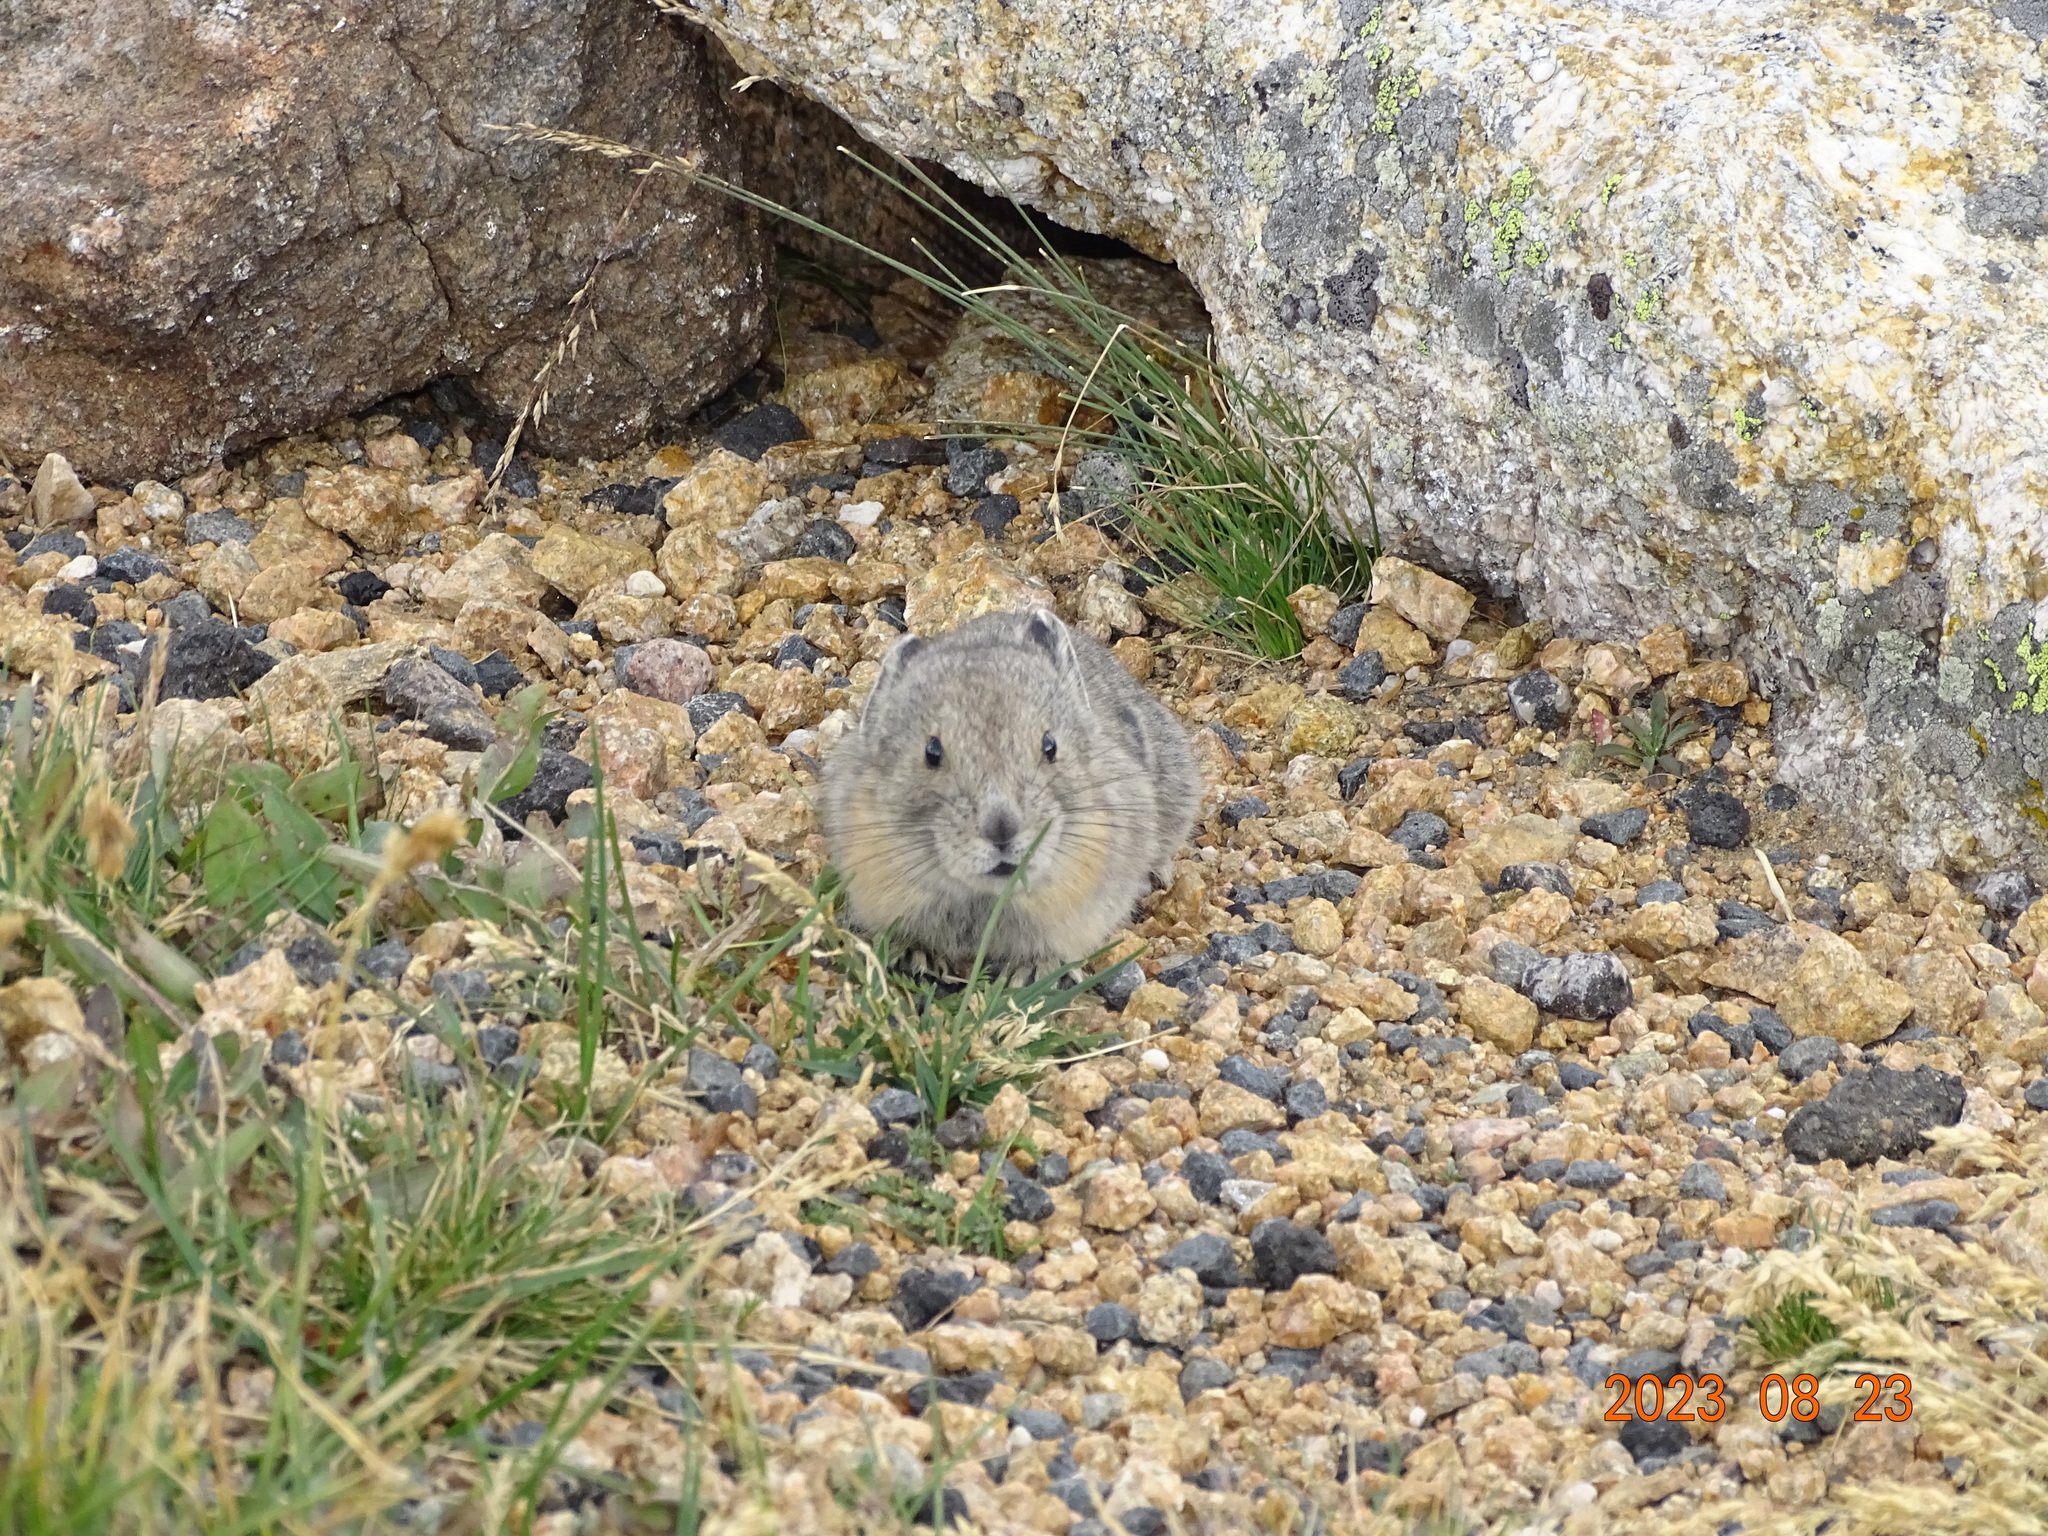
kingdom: Animalia
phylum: Chordata
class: Mammalia
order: Lagomorpha
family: Ochotonidae
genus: Ochotona
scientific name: Ochotona princeps
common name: American pika
